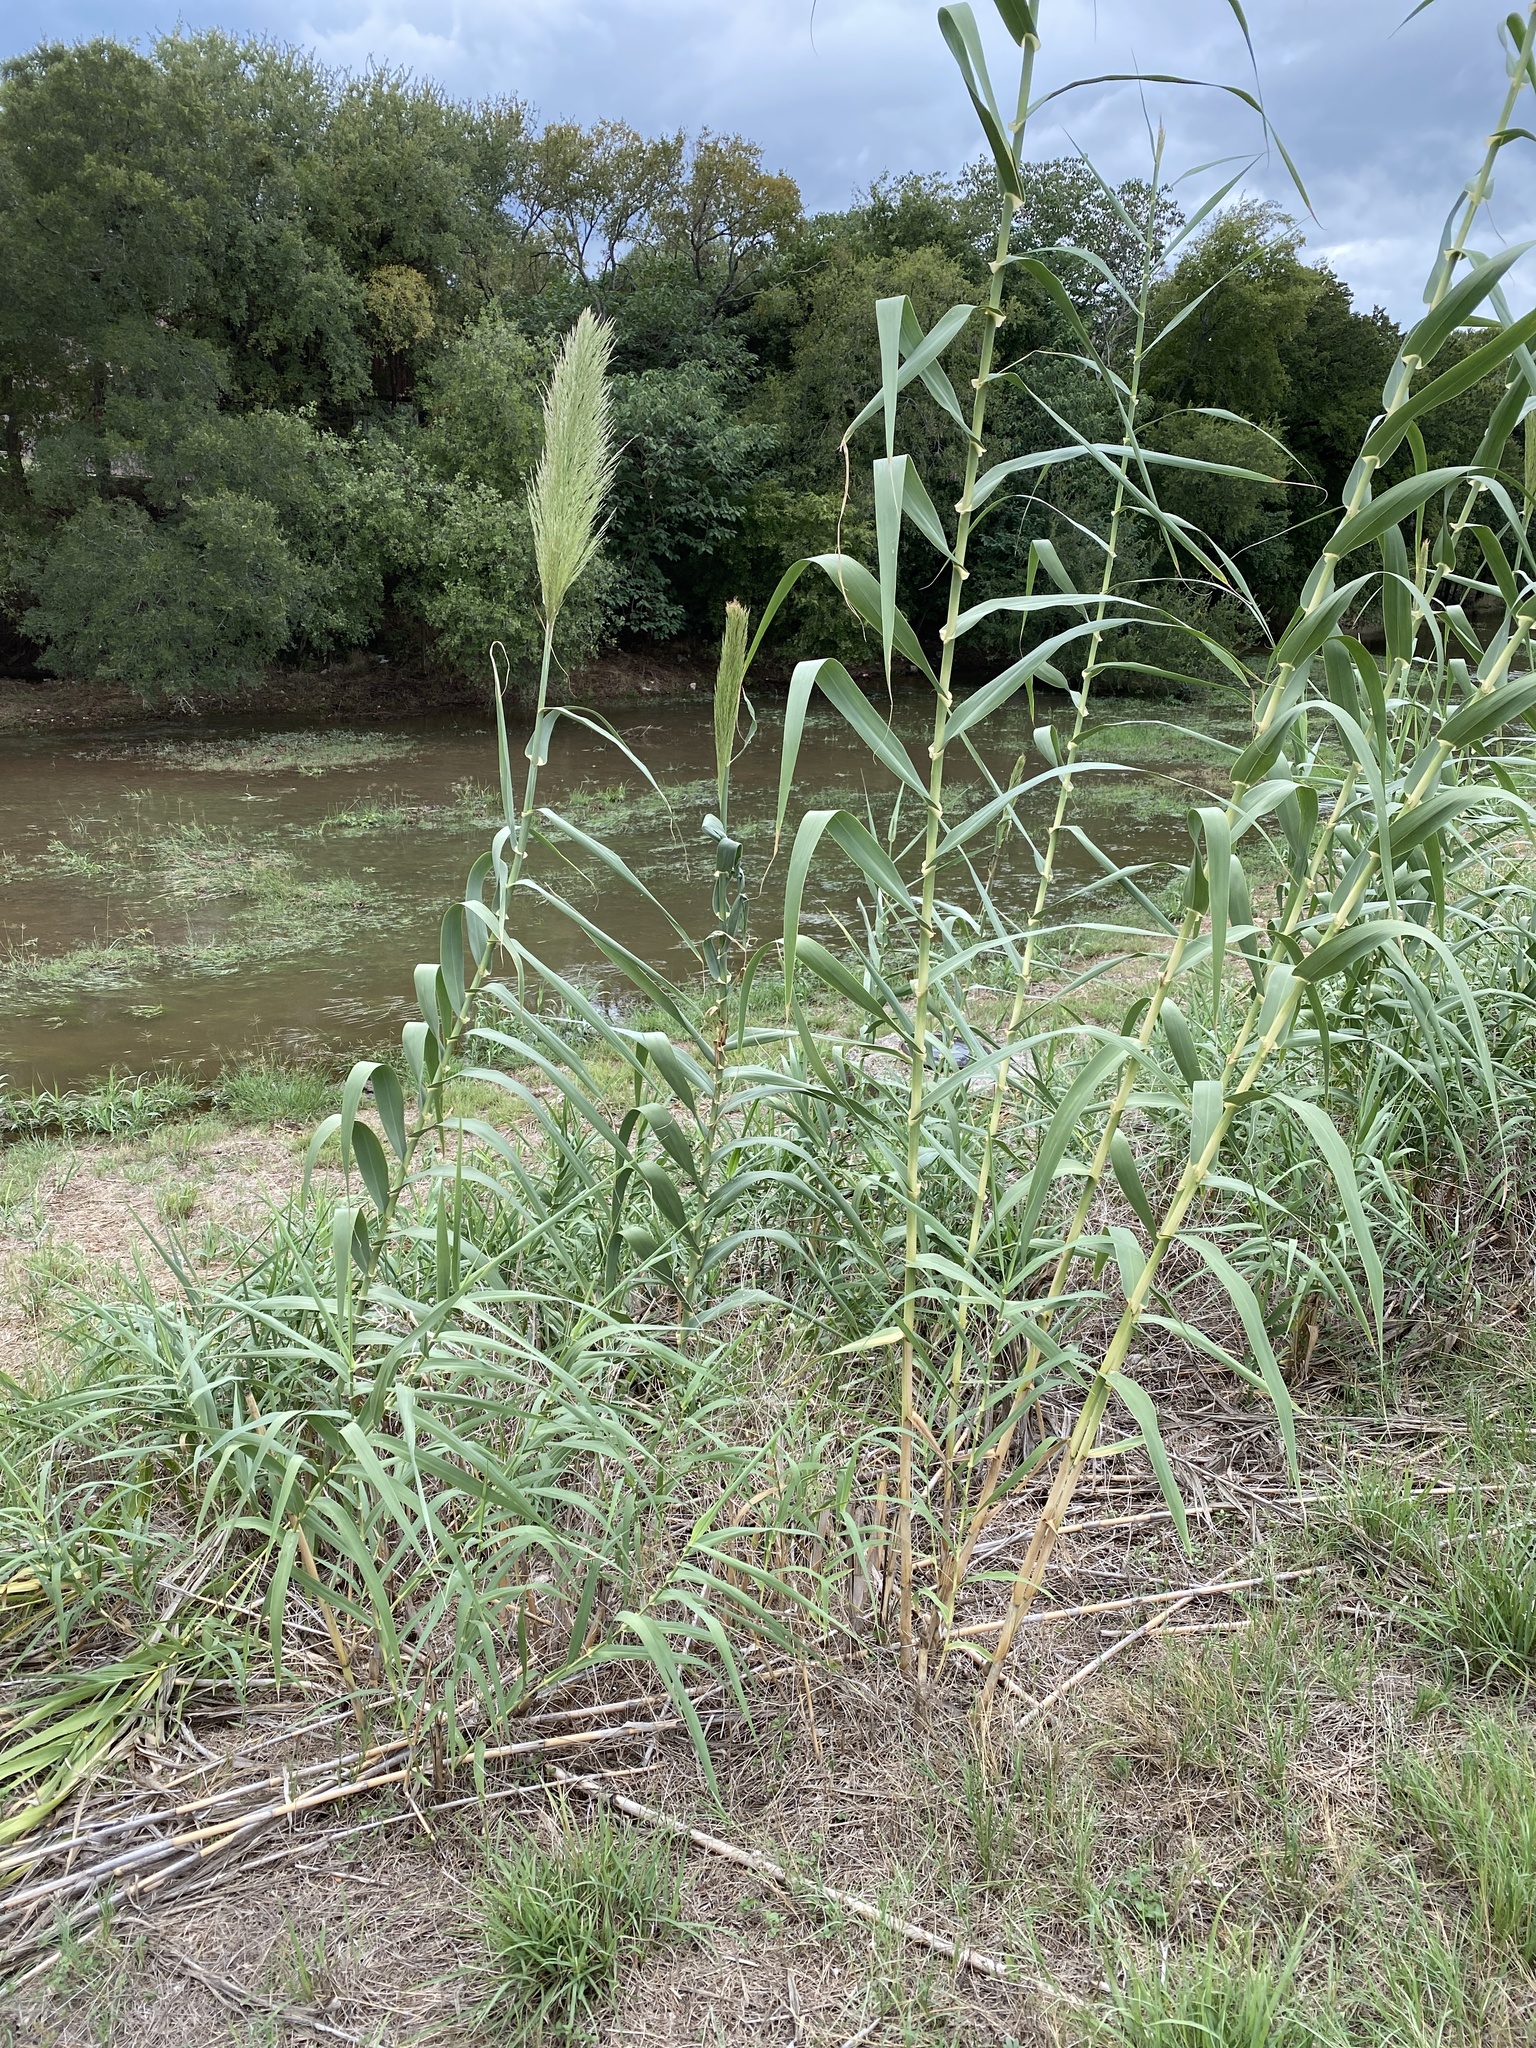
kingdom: Plantae
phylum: Tracheophyta
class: Liliopsida
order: Poales
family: Poaceae
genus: Arundo
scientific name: Arundo donax
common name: Giant reed
